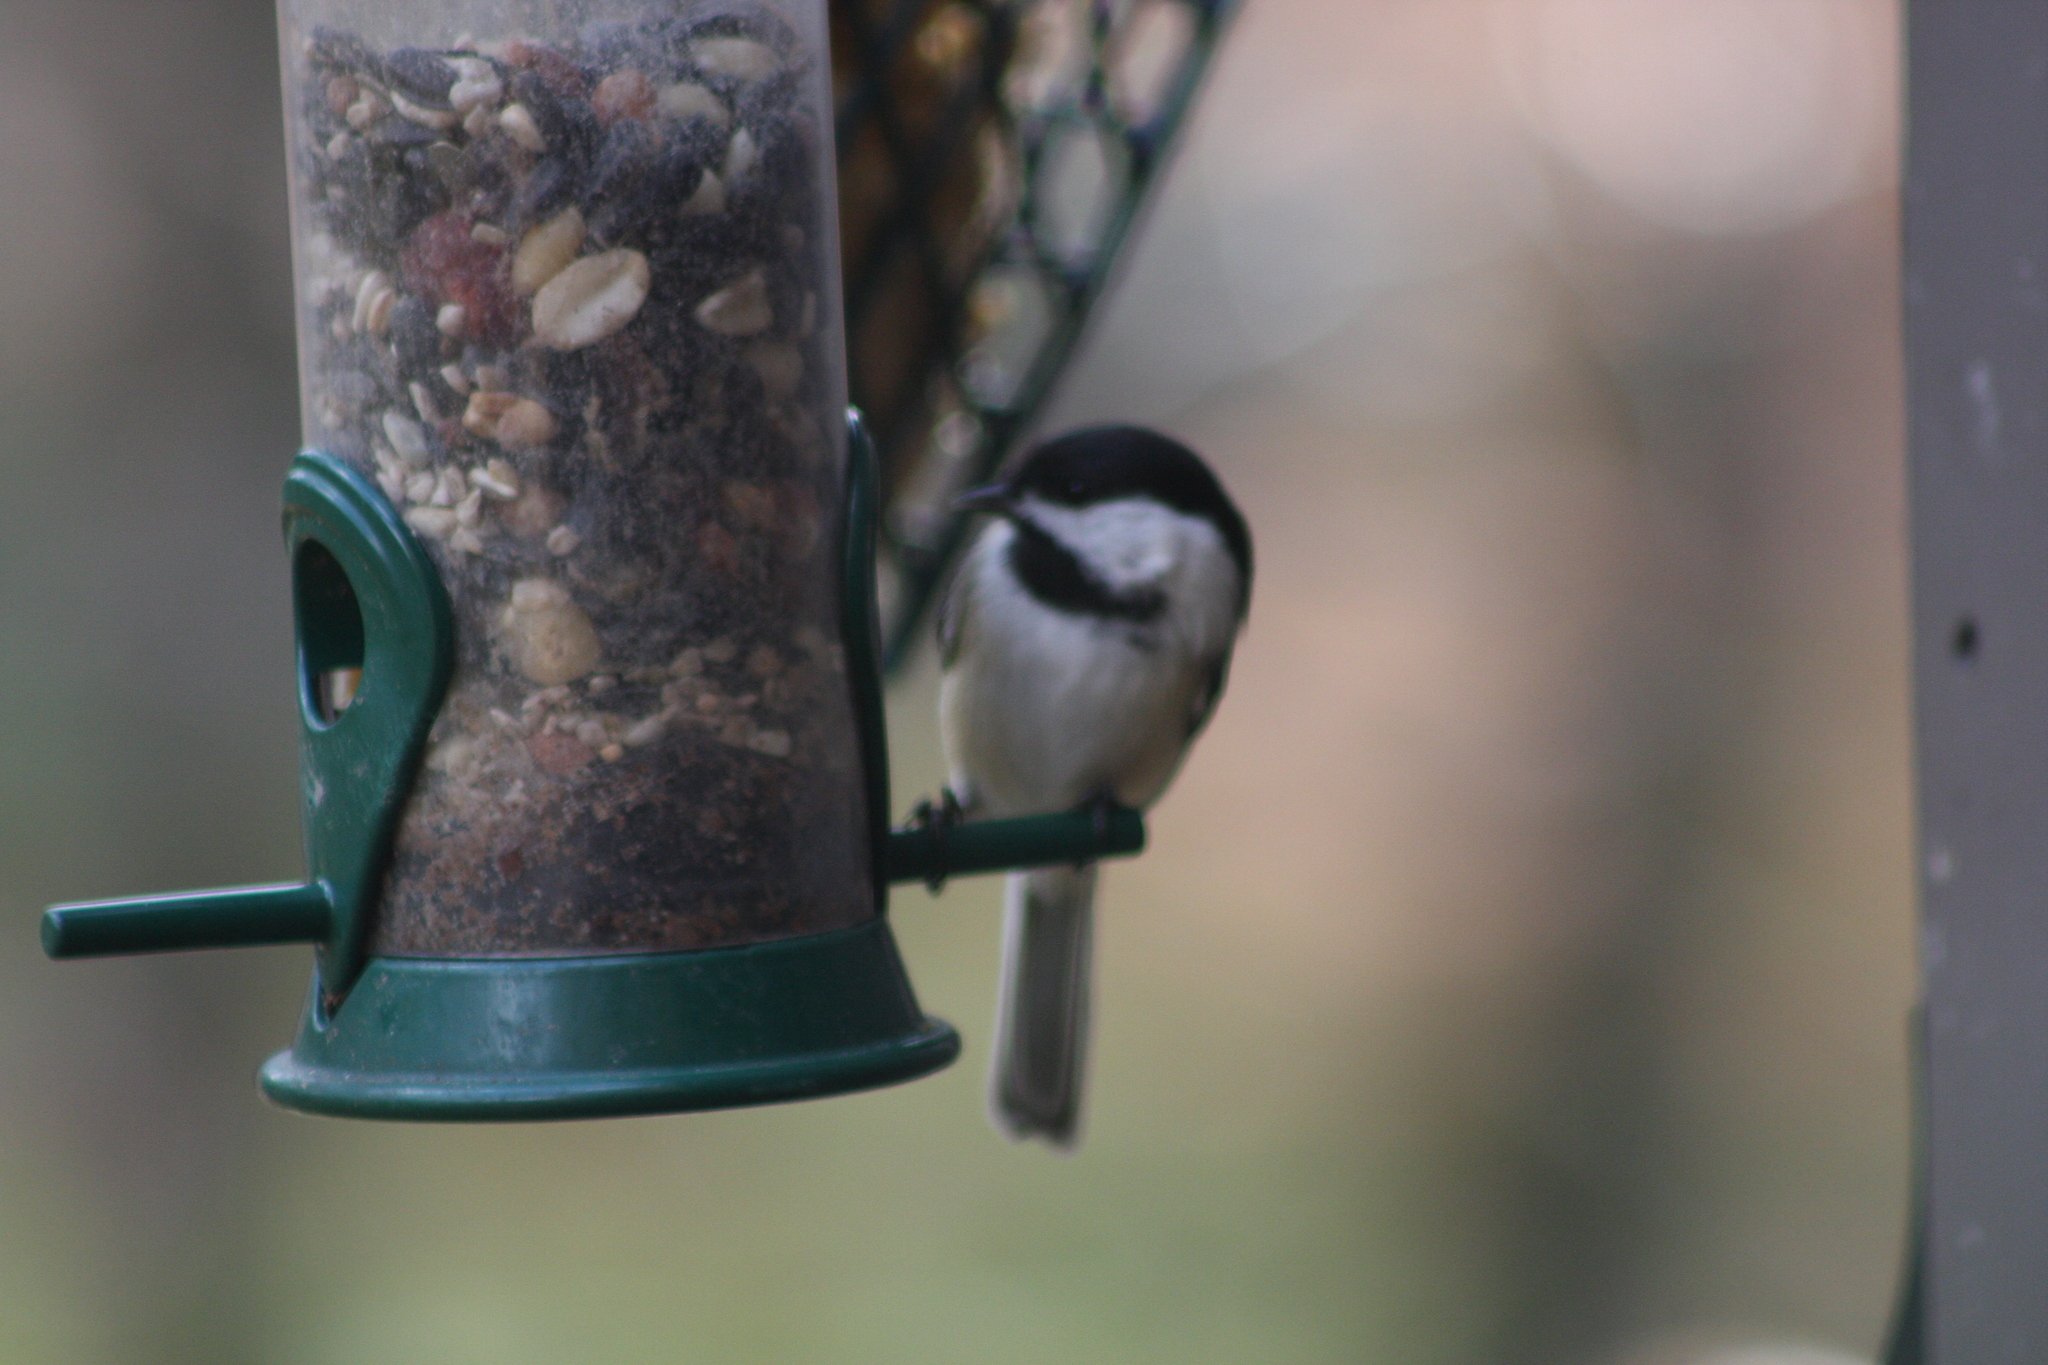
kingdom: Animalia
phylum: Chordata
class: Aves
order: Passeriformes
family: Paridae
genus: Poecile
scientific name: Poecile atricapillus
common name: Black-capped chickadee
